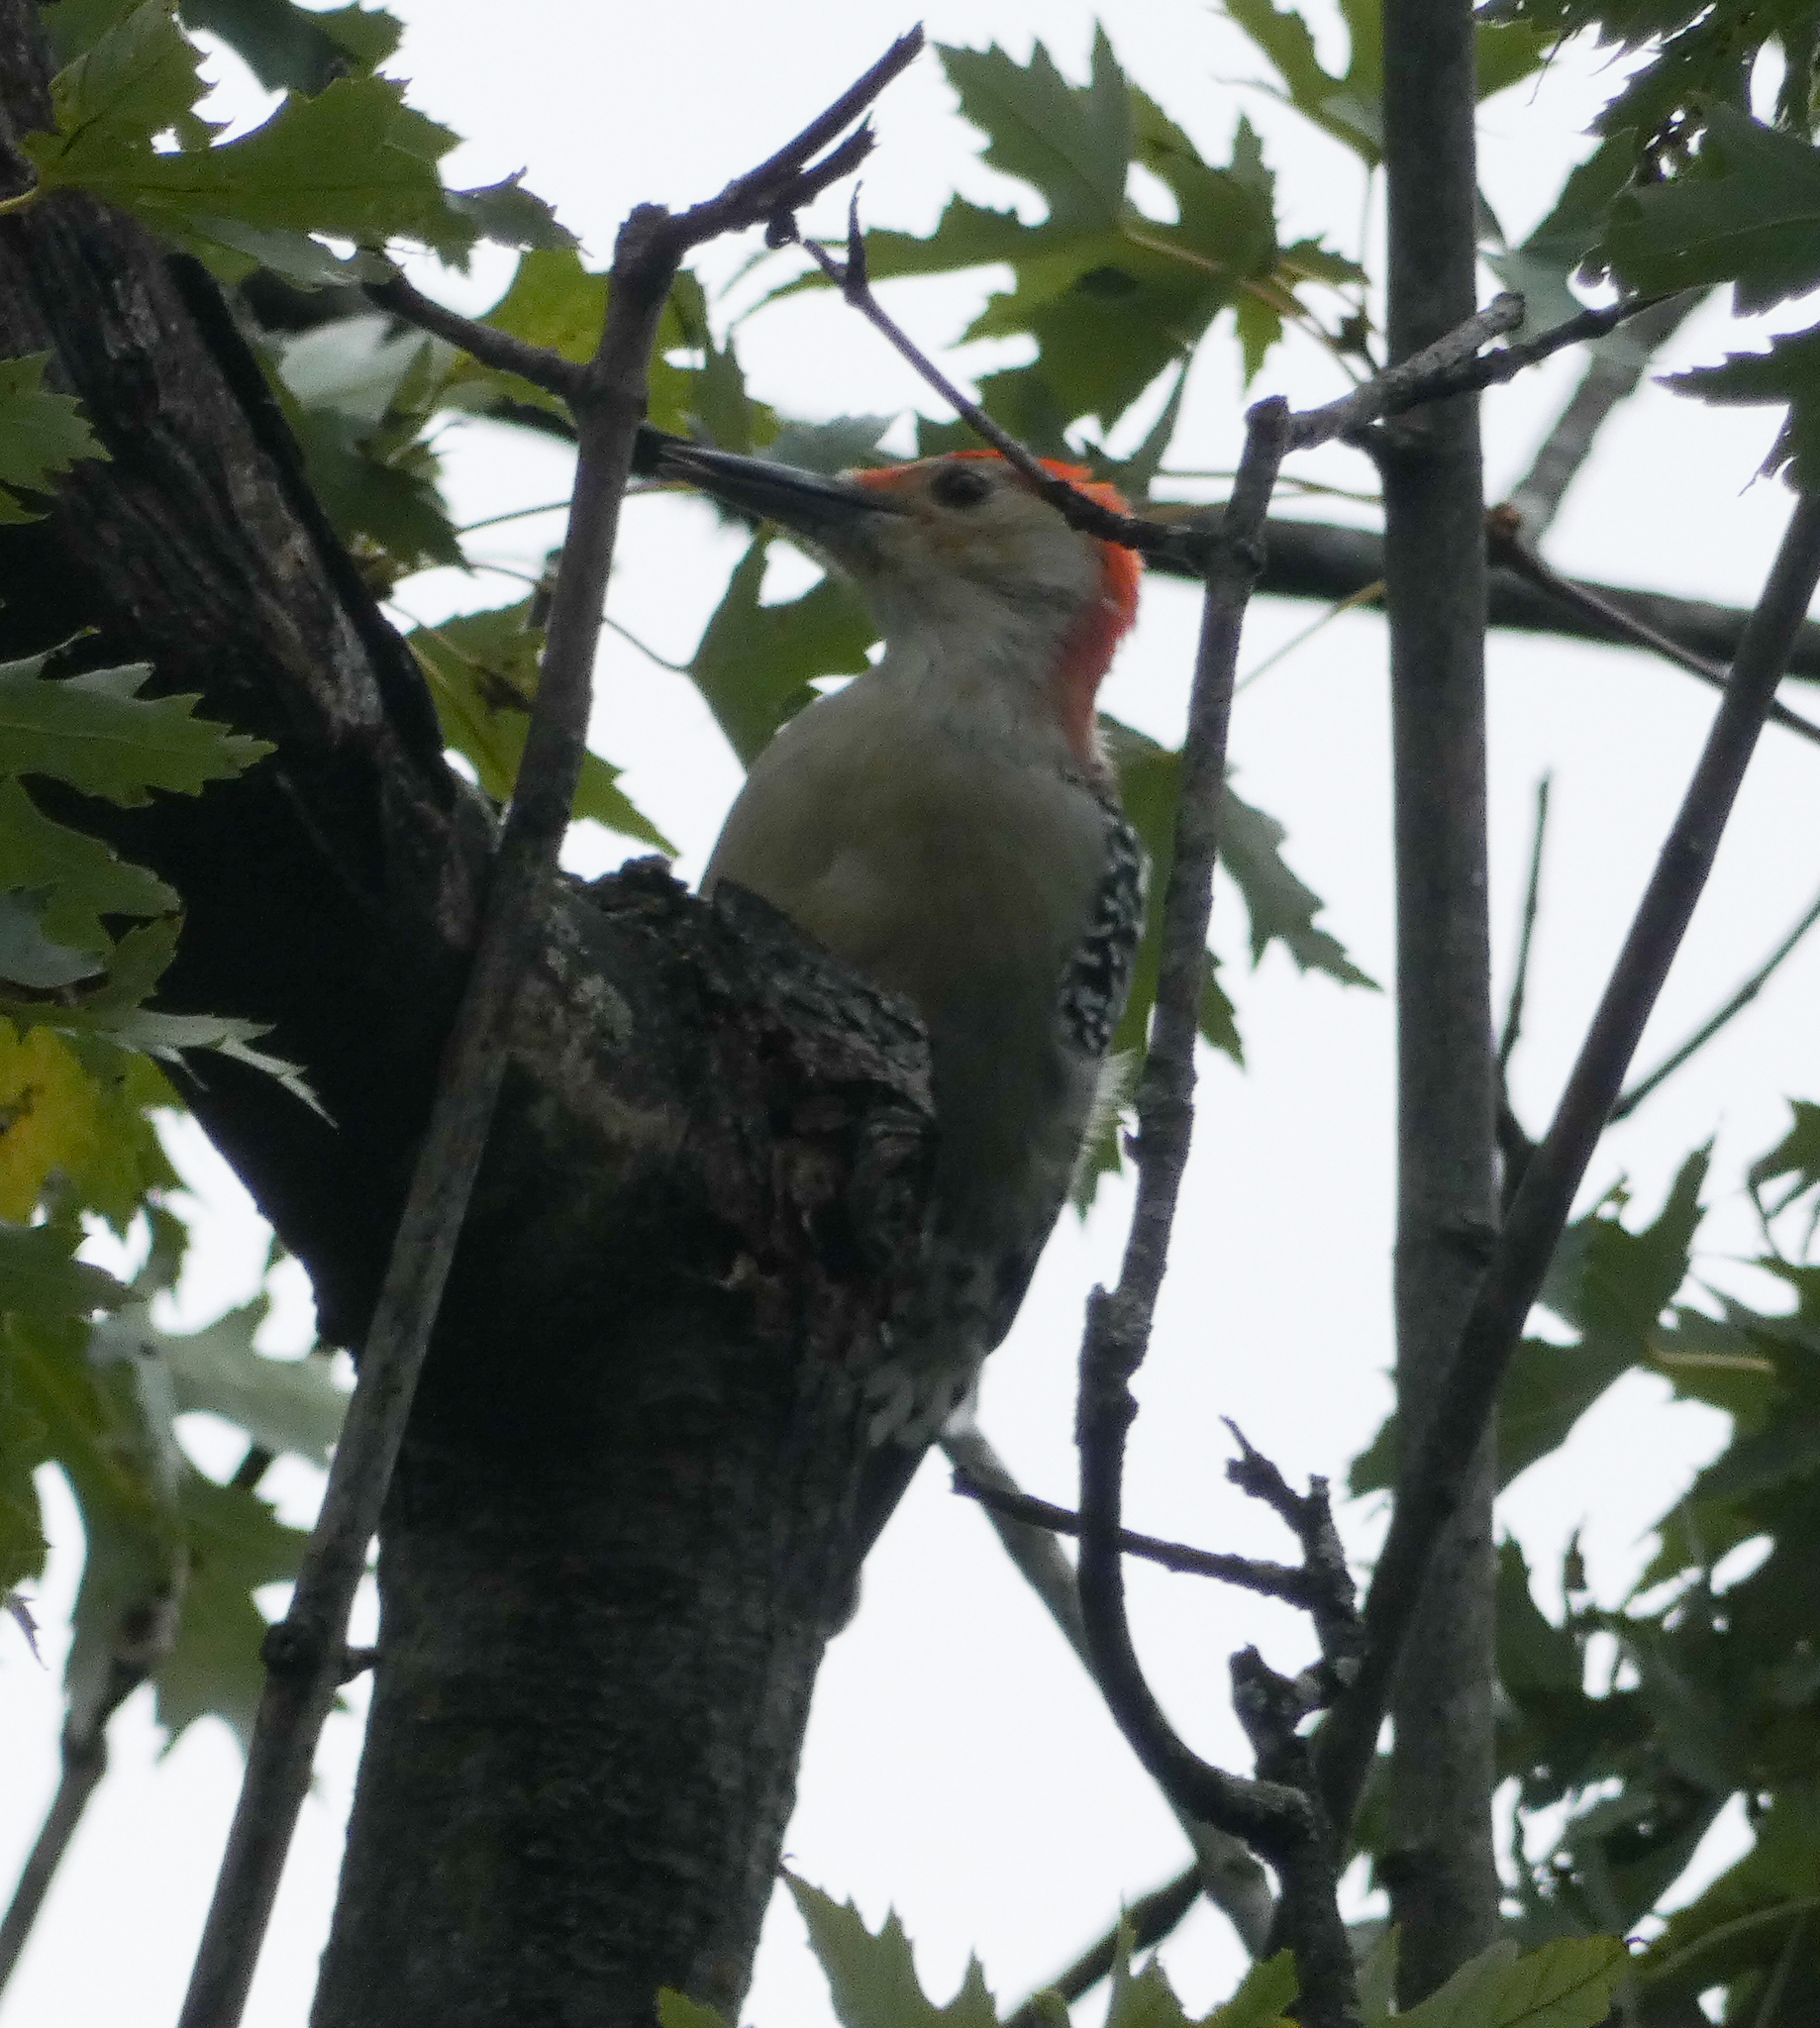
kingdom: Animalia
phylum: Chordata
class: Aves
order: Piciformes
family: Picidae
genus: Melanerpes
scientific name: Melanerpes carolinus
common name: Red-bellied woodpecker
